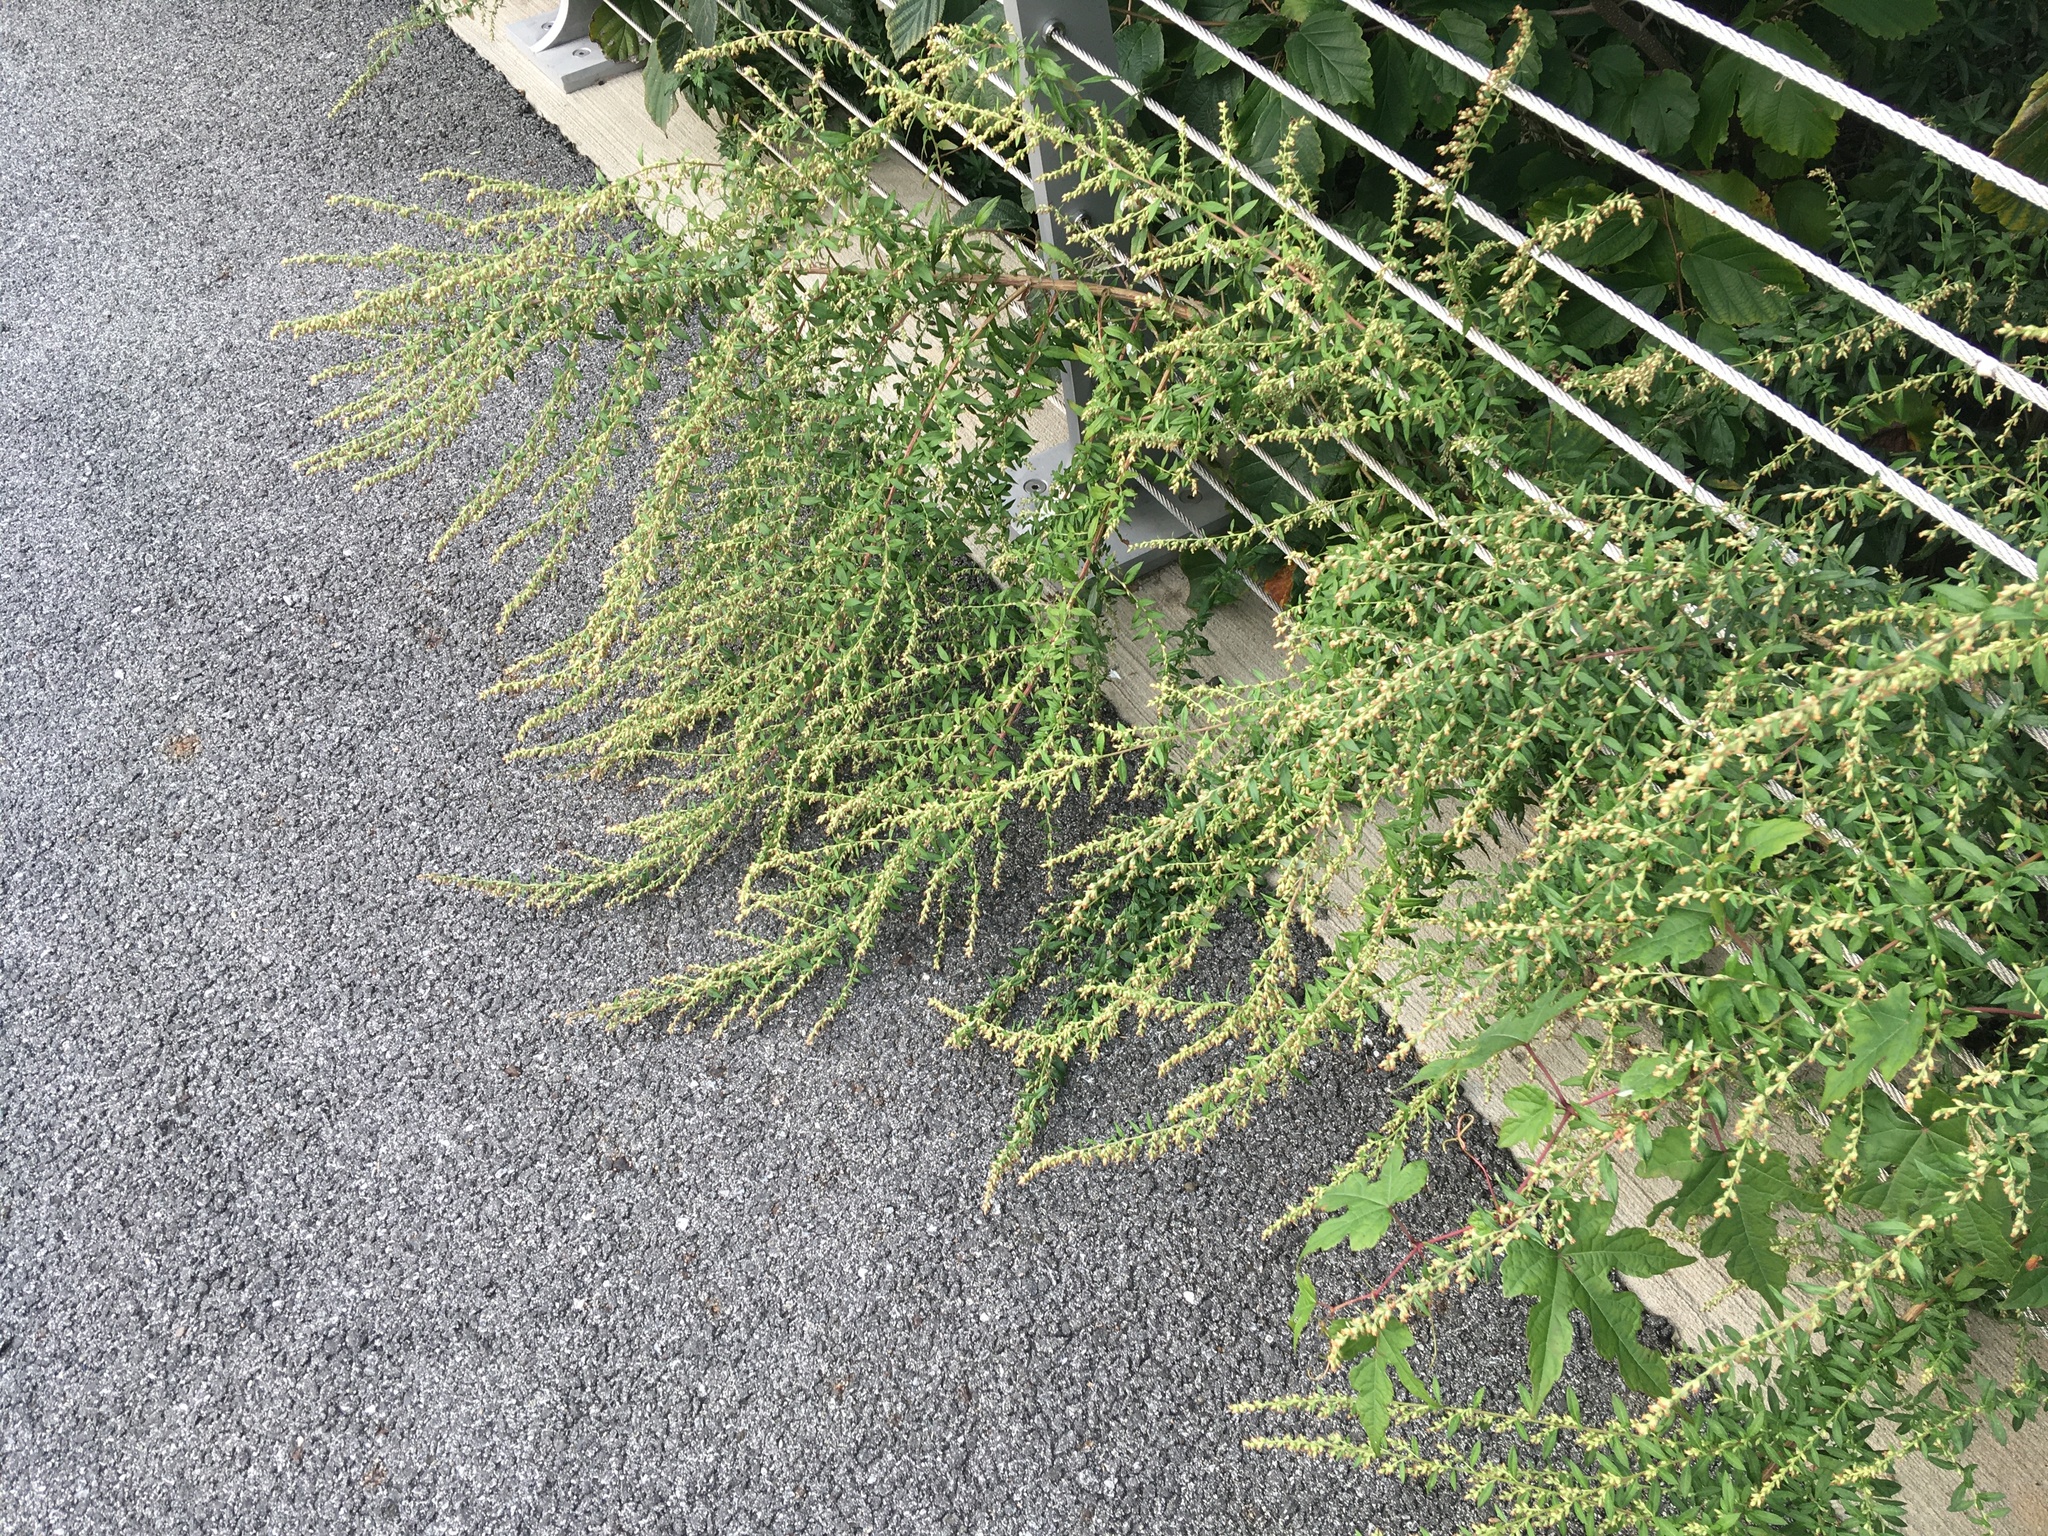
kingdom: Plantae
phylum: Tracheophyta
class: Magnoliopsida
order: Asterales
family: Asteraceae
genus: Artemisia
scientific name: Artemisia vulgaris
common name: Mugwort
